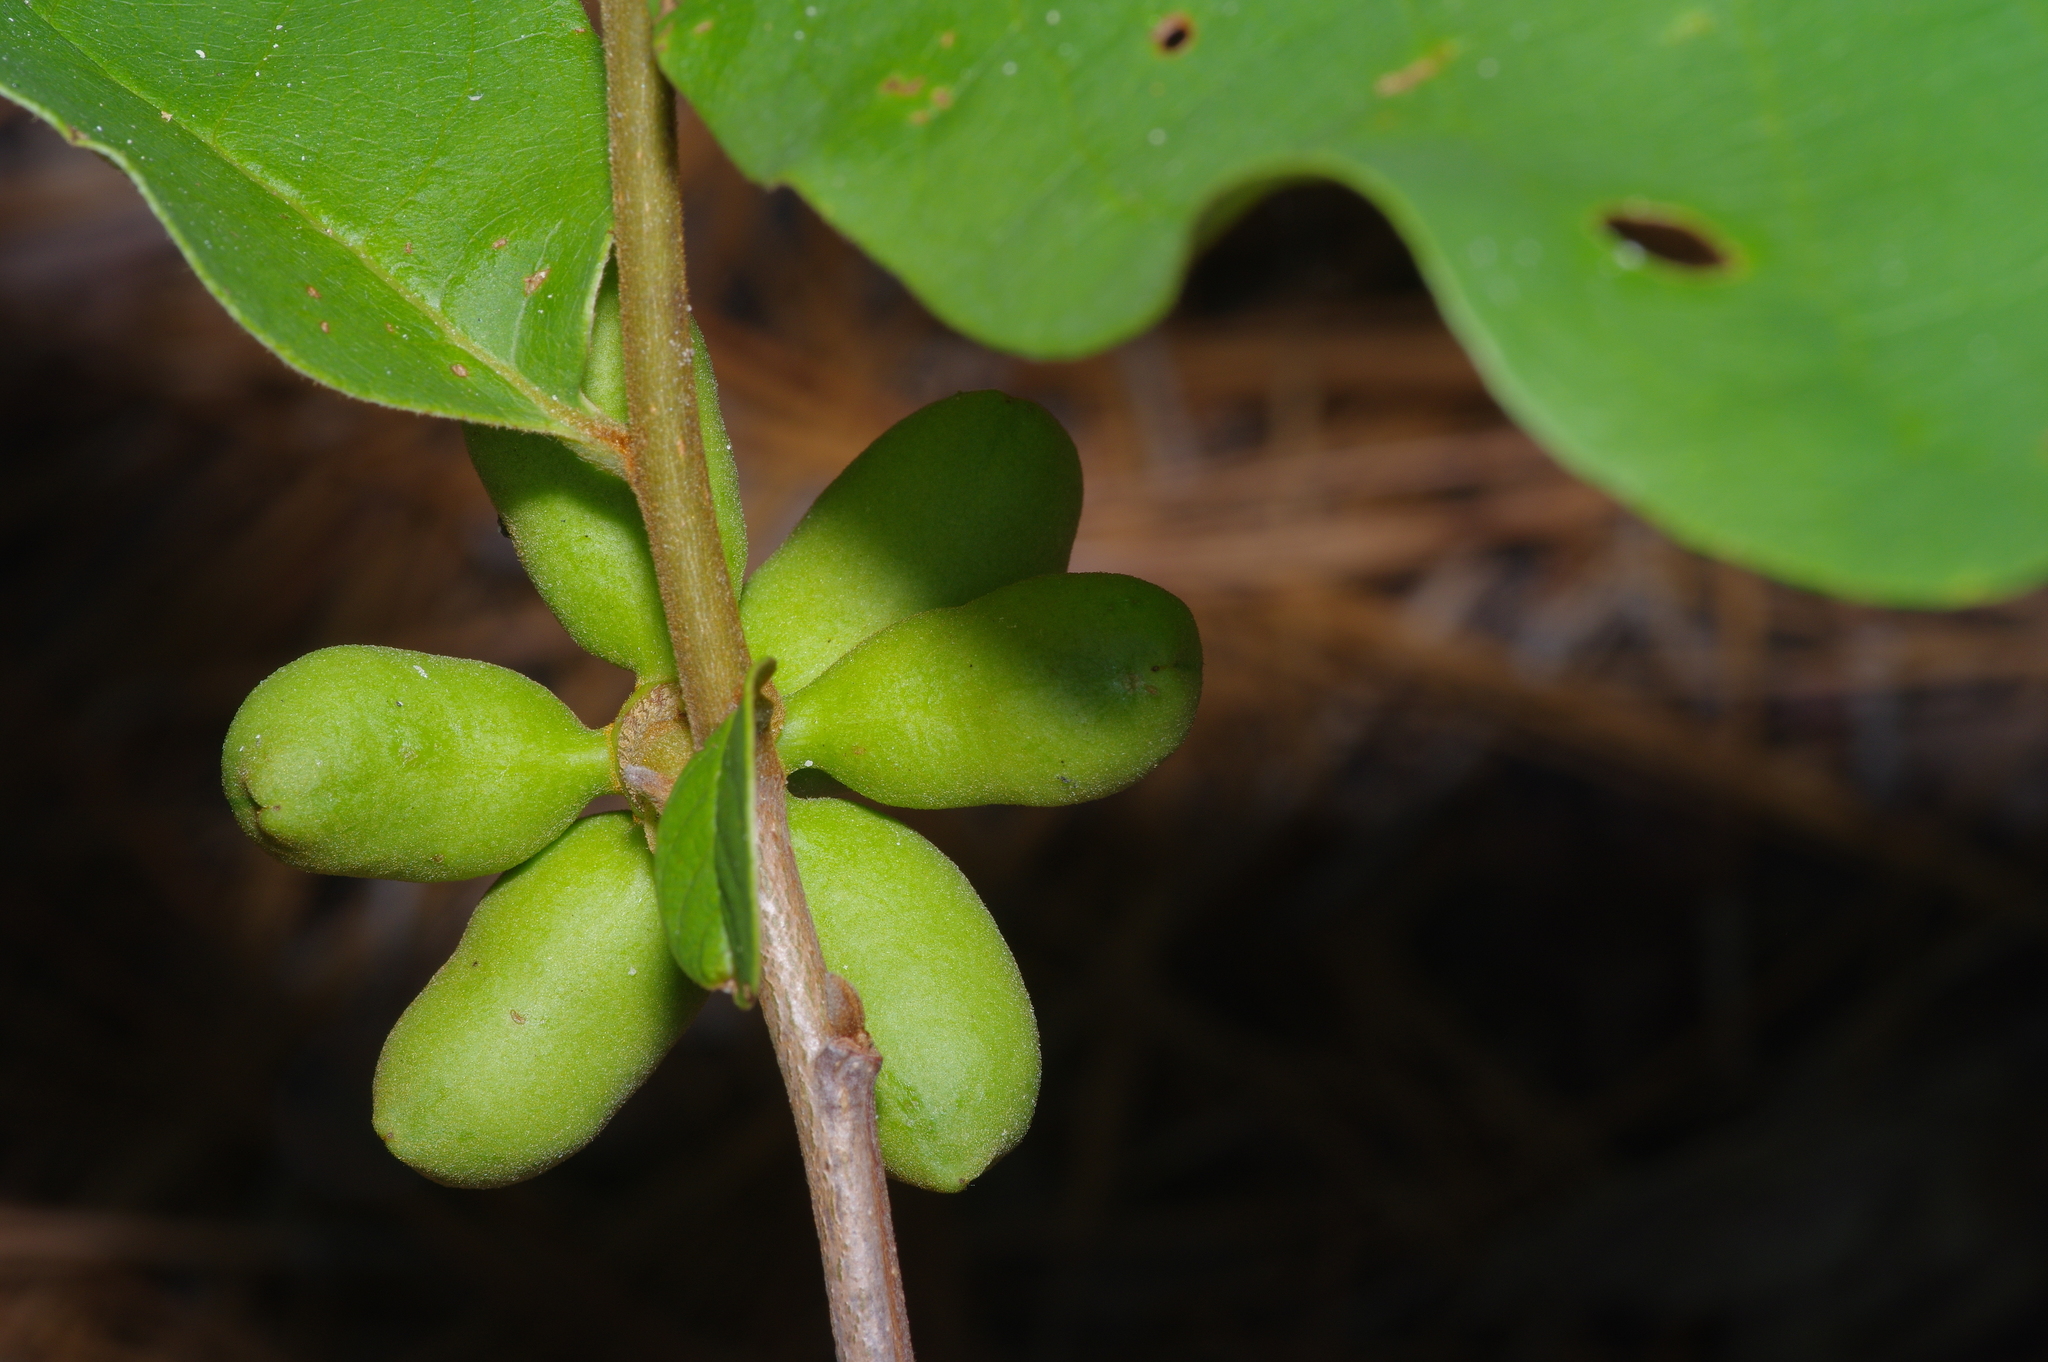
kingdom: Plantae
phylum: Tracheophyta
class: Magnoliopsida
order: Magnoliales
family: Annonaceae
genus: Asimina
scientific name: Asimina parviflora
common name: Dwarf pawpaw
